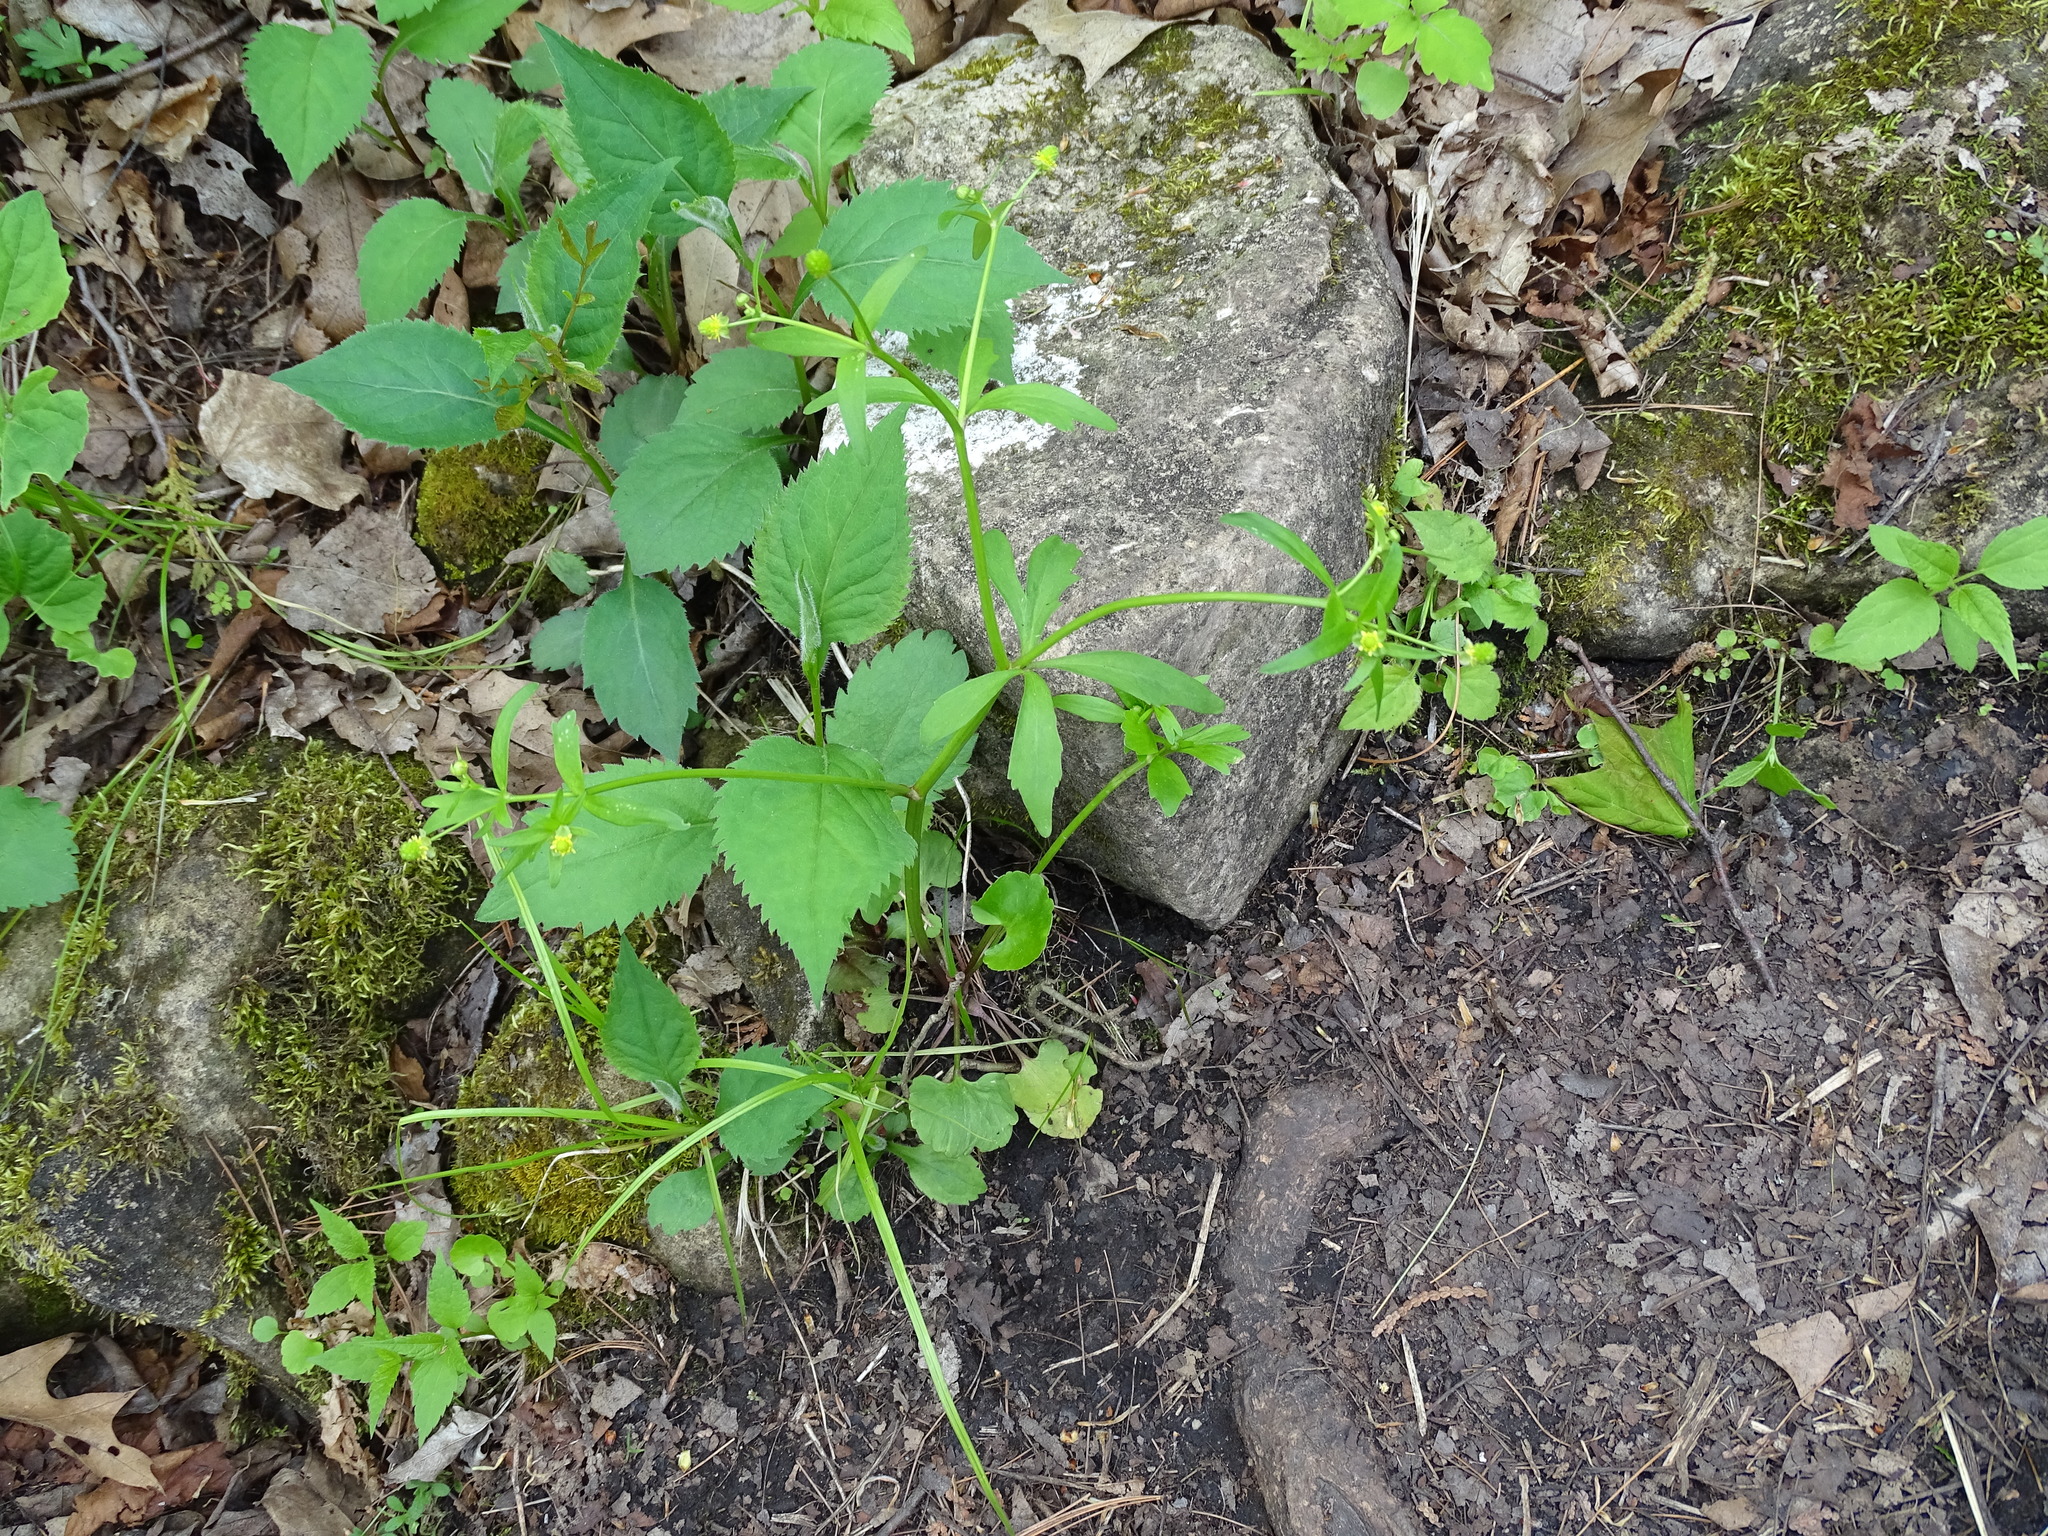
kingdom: Plantae
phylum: Tracheophyta
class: Magnoliopsida
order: Ranunculales
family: Ranunculaceae
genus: Ranunculus
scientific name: Ranunculus abortivus
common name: Early wood buttercup
